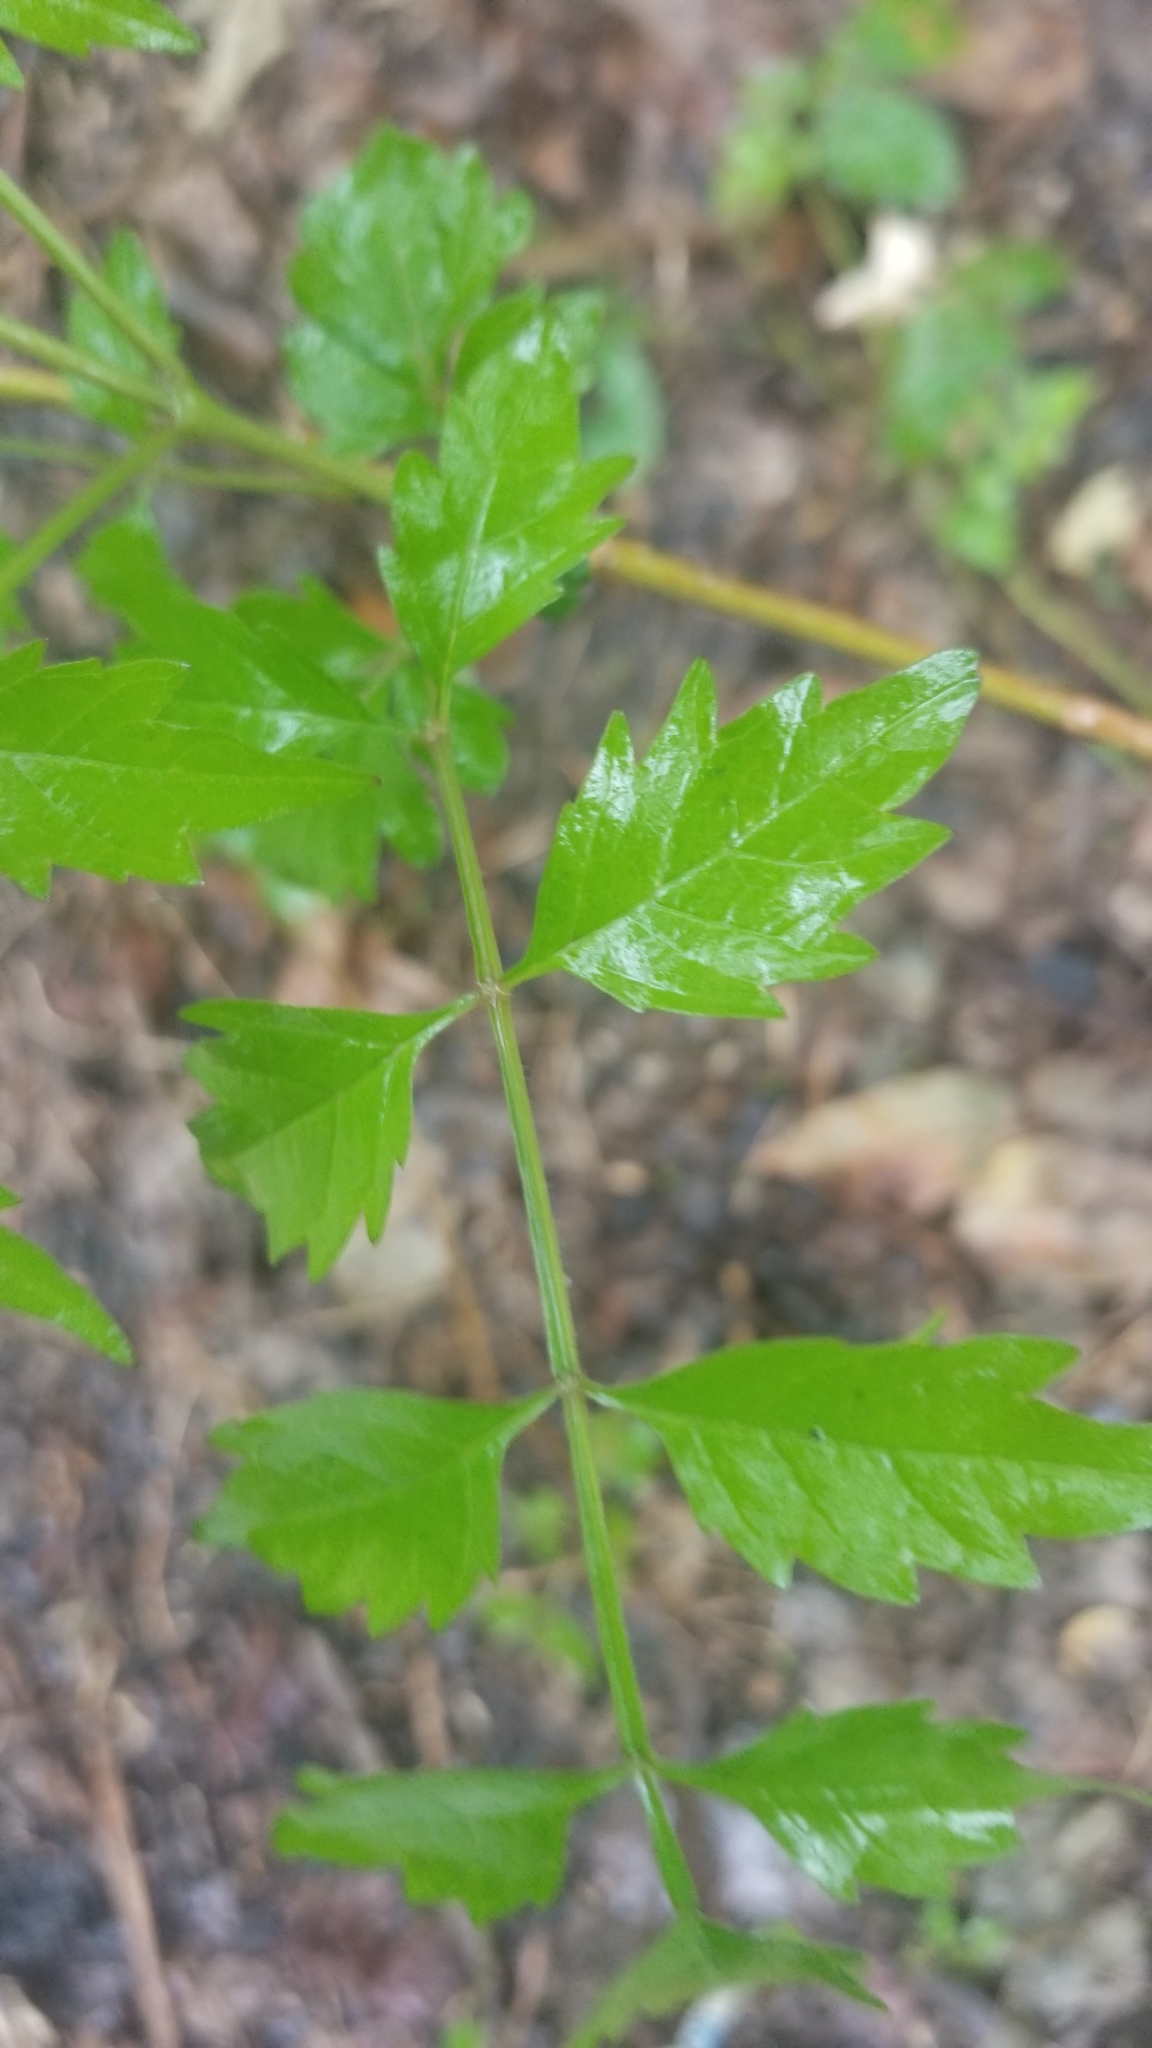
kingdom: Plantae
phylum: Tracheophyta
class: Magnoliopsida
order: Lamiales
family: Bignoniaceae
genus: Campsis
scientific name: Campsis radicans
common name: Trumpet-creeper
